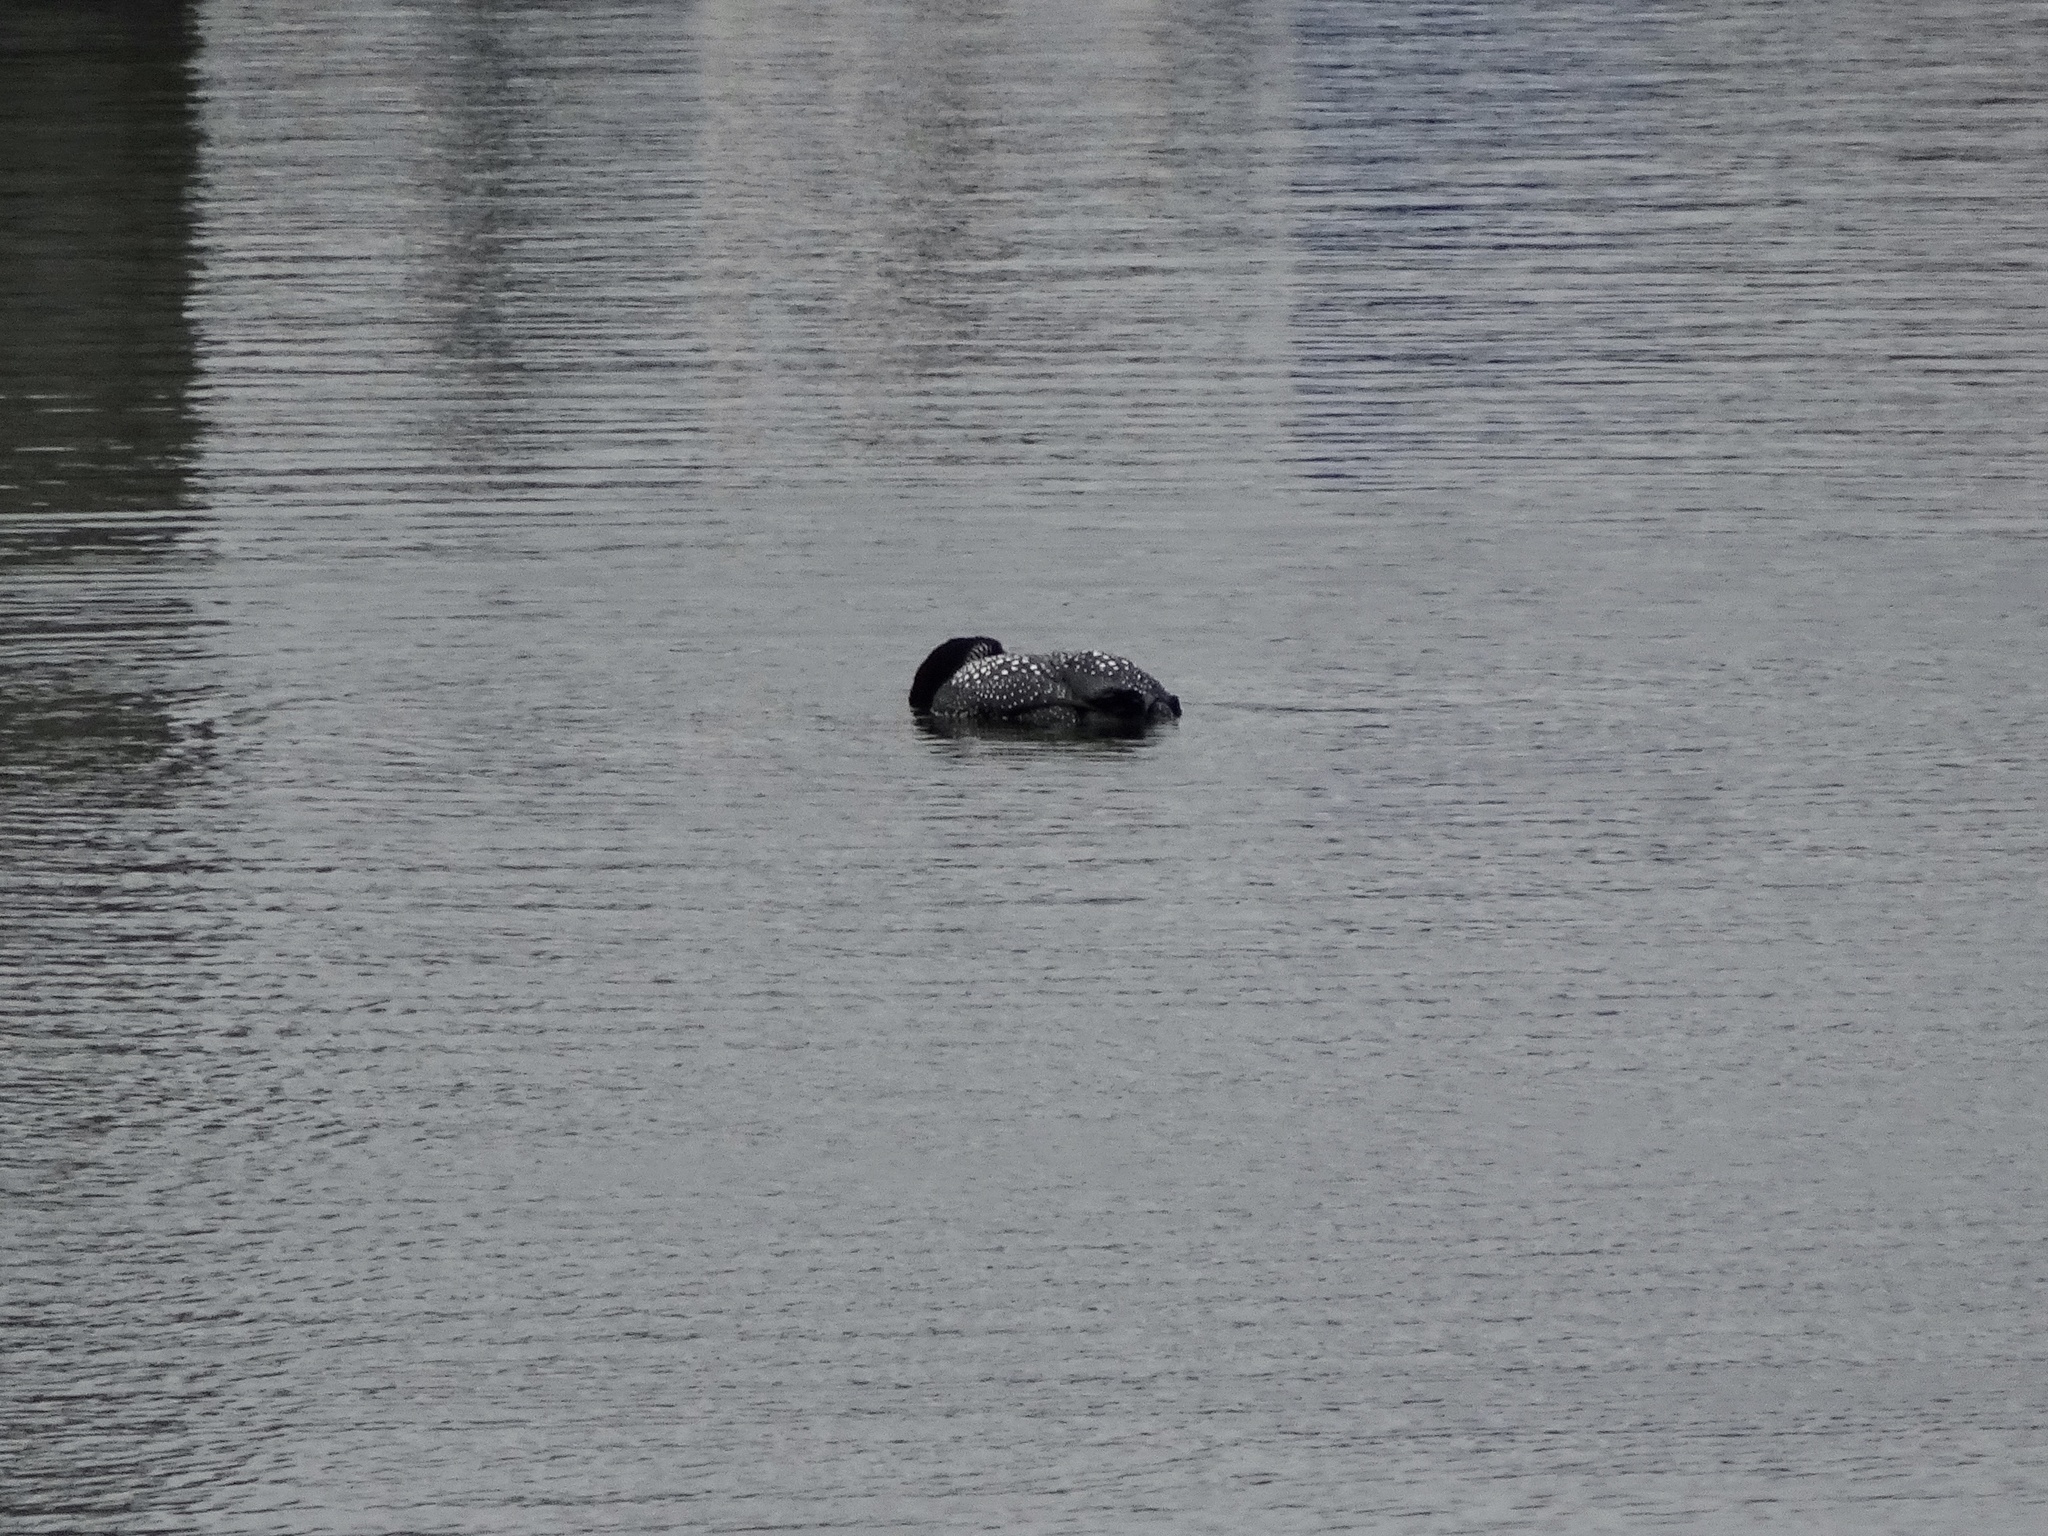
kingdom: Animalia
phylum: Chordata
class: Aves
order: Gaviiformes
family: Gaviidae
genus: Gavia
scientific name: Gavia immer
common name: Common loon
